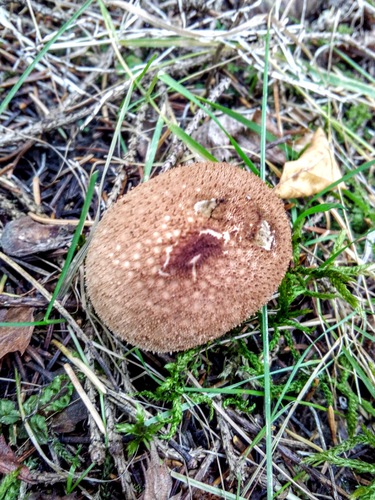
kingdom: Fungi
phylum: Basidiomycota
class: Agaricomycetes
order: Agaricales
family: Lycoperdaceae
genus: Lycoperdon
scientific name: Lycoperdon perlatum
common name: Common puffball
